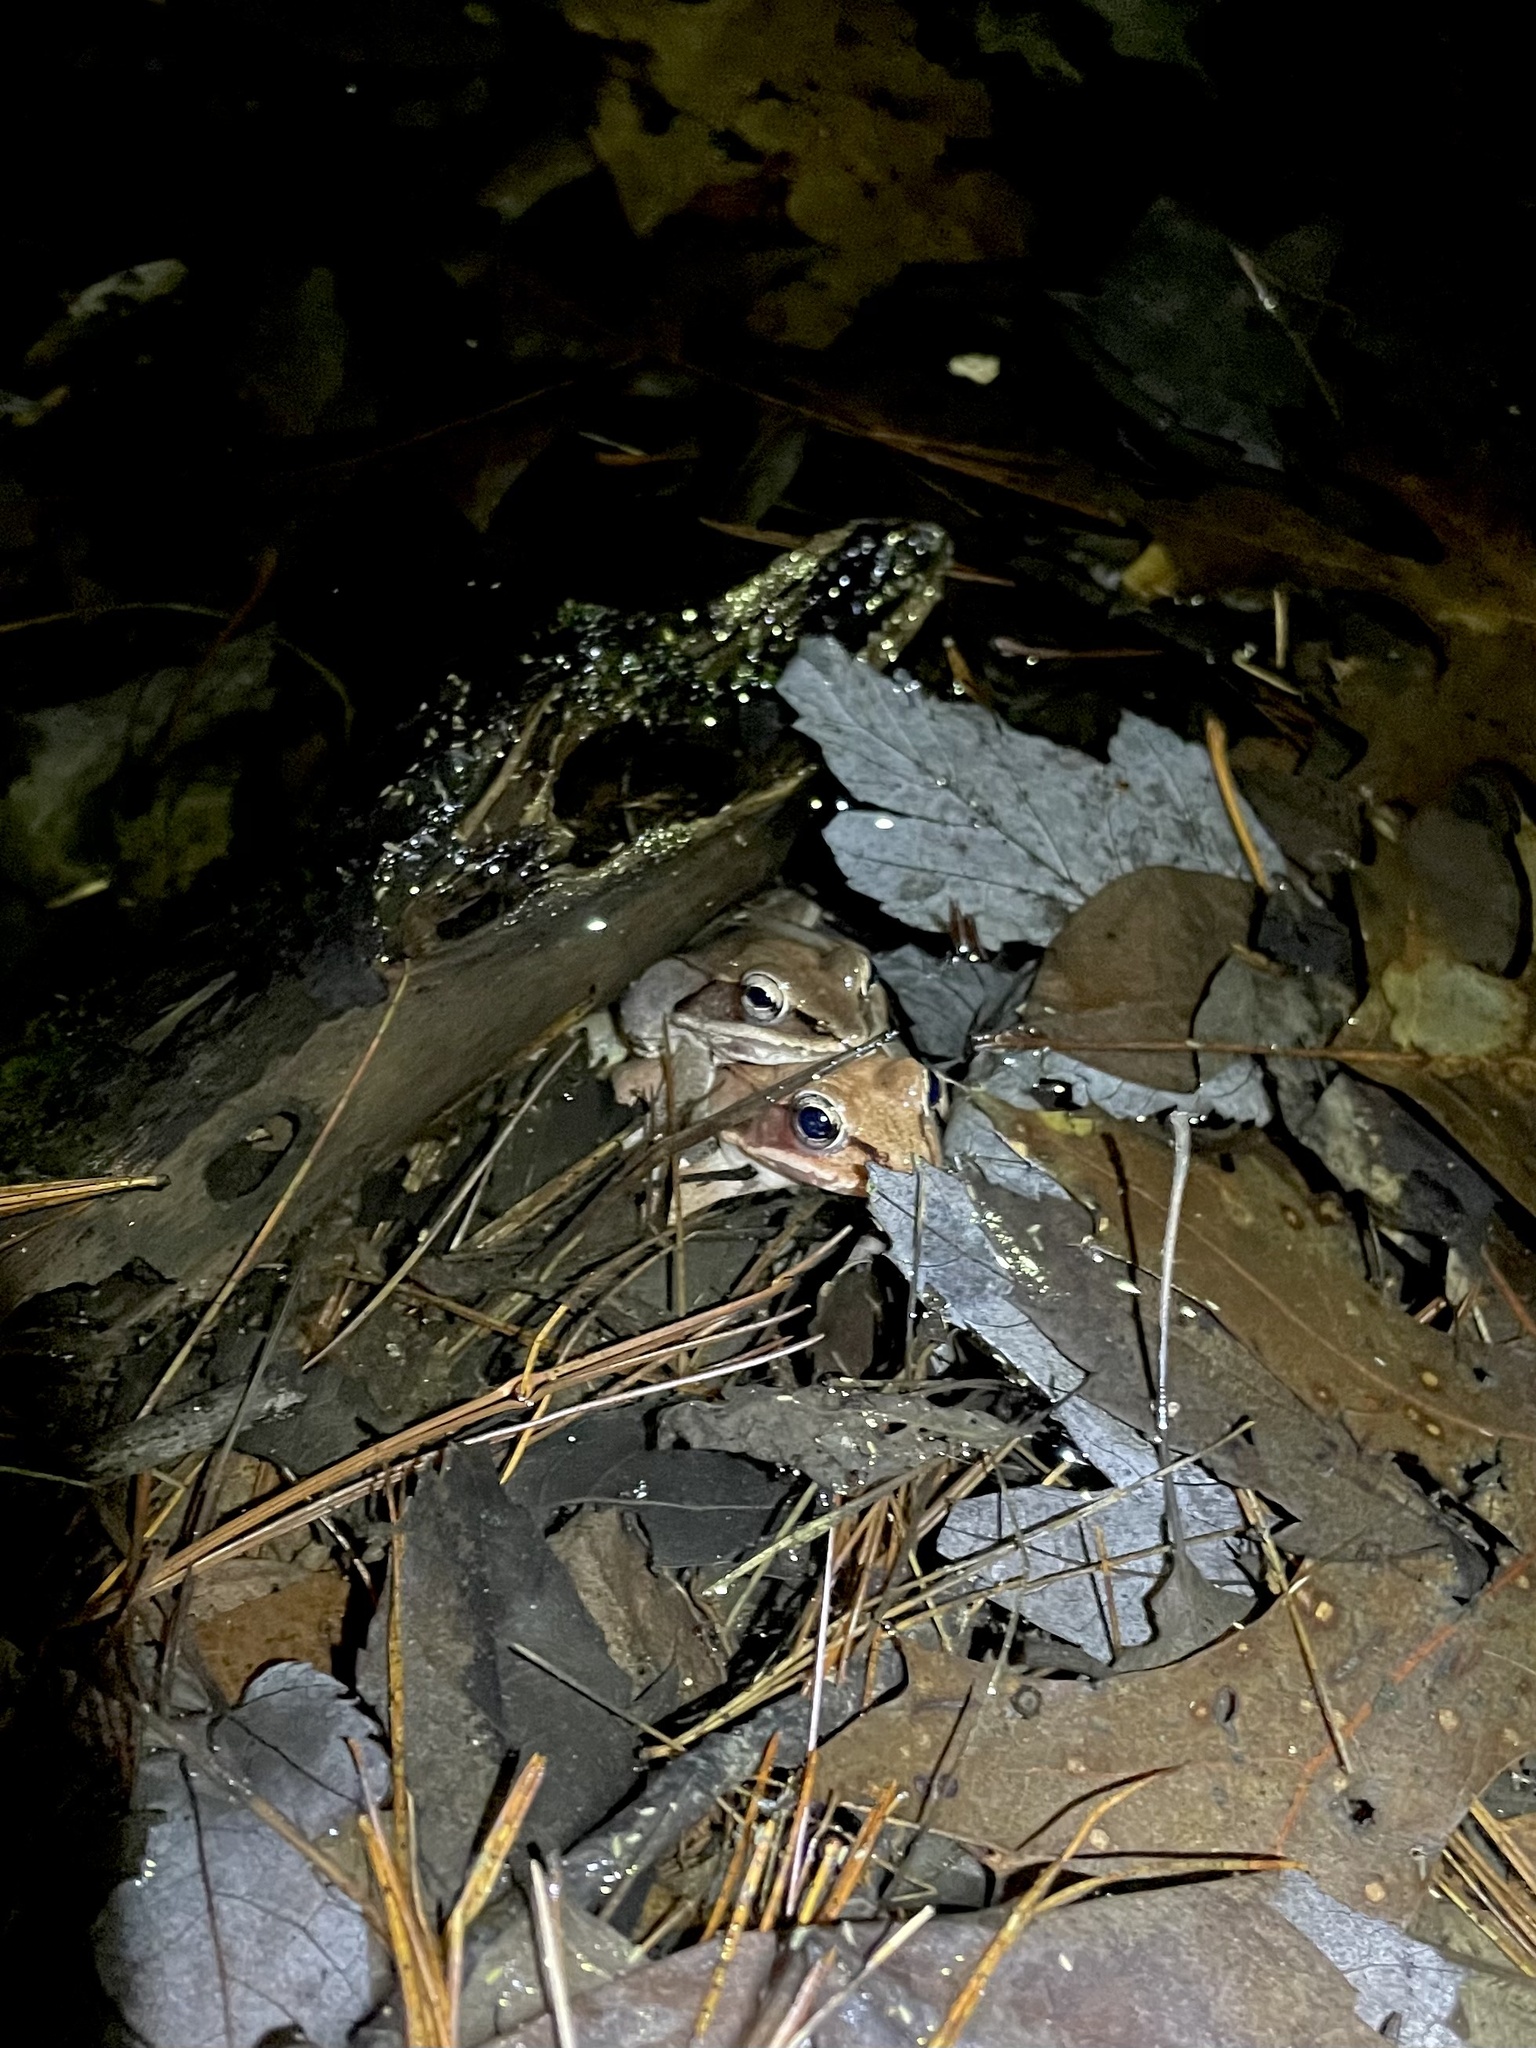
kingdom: Animalia
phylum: Chordata
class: Amphibia
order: Anura
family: Ranidae
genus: Lithobates
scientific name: Lithobates sylvaticus
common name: Wood frog
